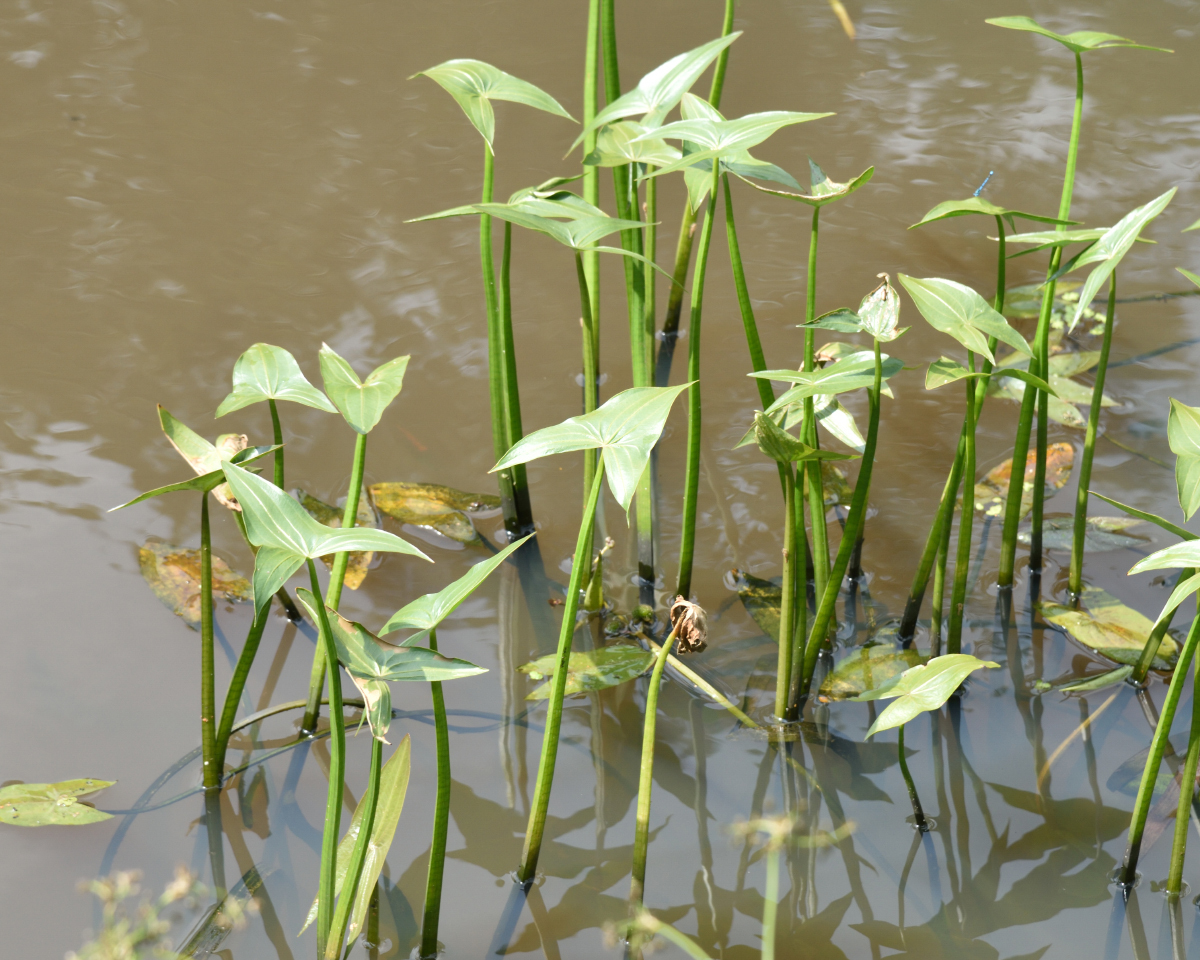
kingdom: Plantae
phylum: Tracheophyta
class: Liliopsida
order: Alismatales
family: Alismataceae
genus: Sagittaria
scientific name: Sagittaria sagittifolia
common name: Arrowhead
